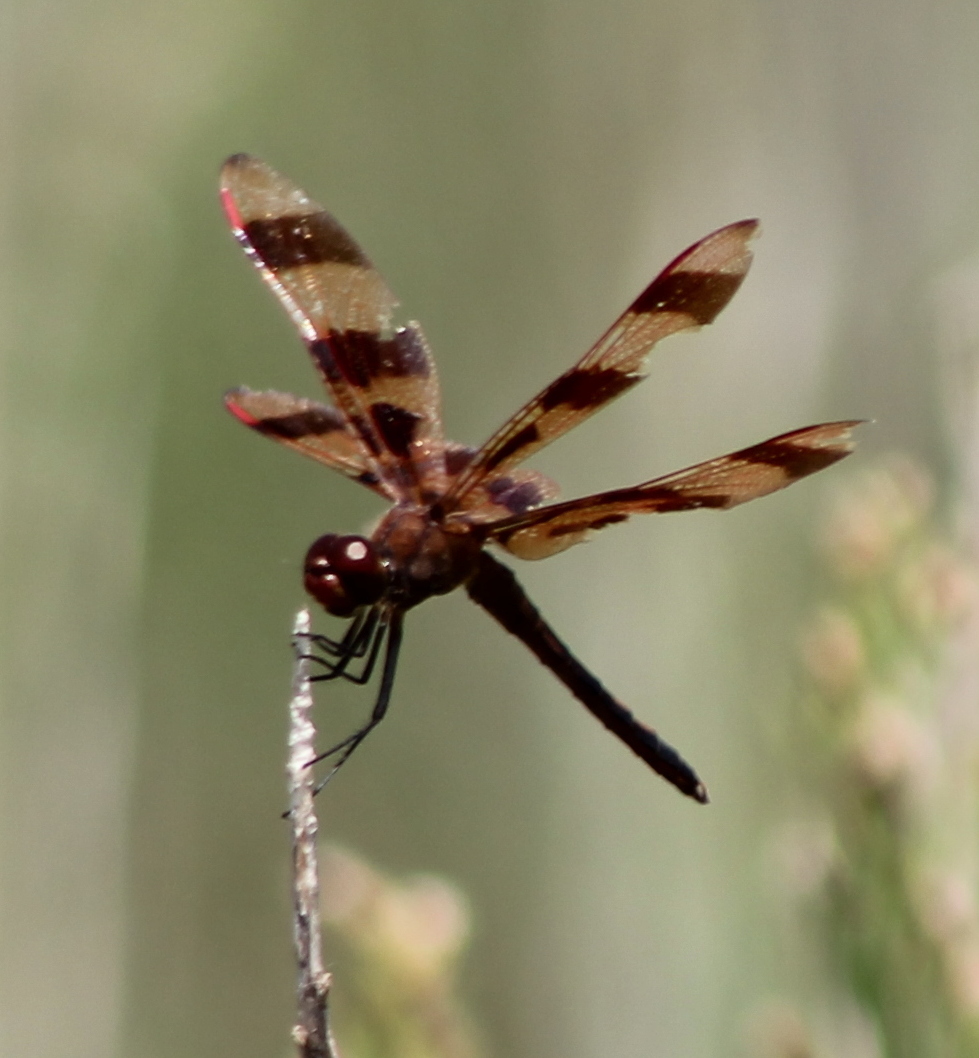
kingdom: Animalia
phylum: Arthropoda
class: Insecta
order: Odonata
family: Libellulidae
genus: Celithemis
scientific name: Celithemis eponina
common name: Halloween pennant
